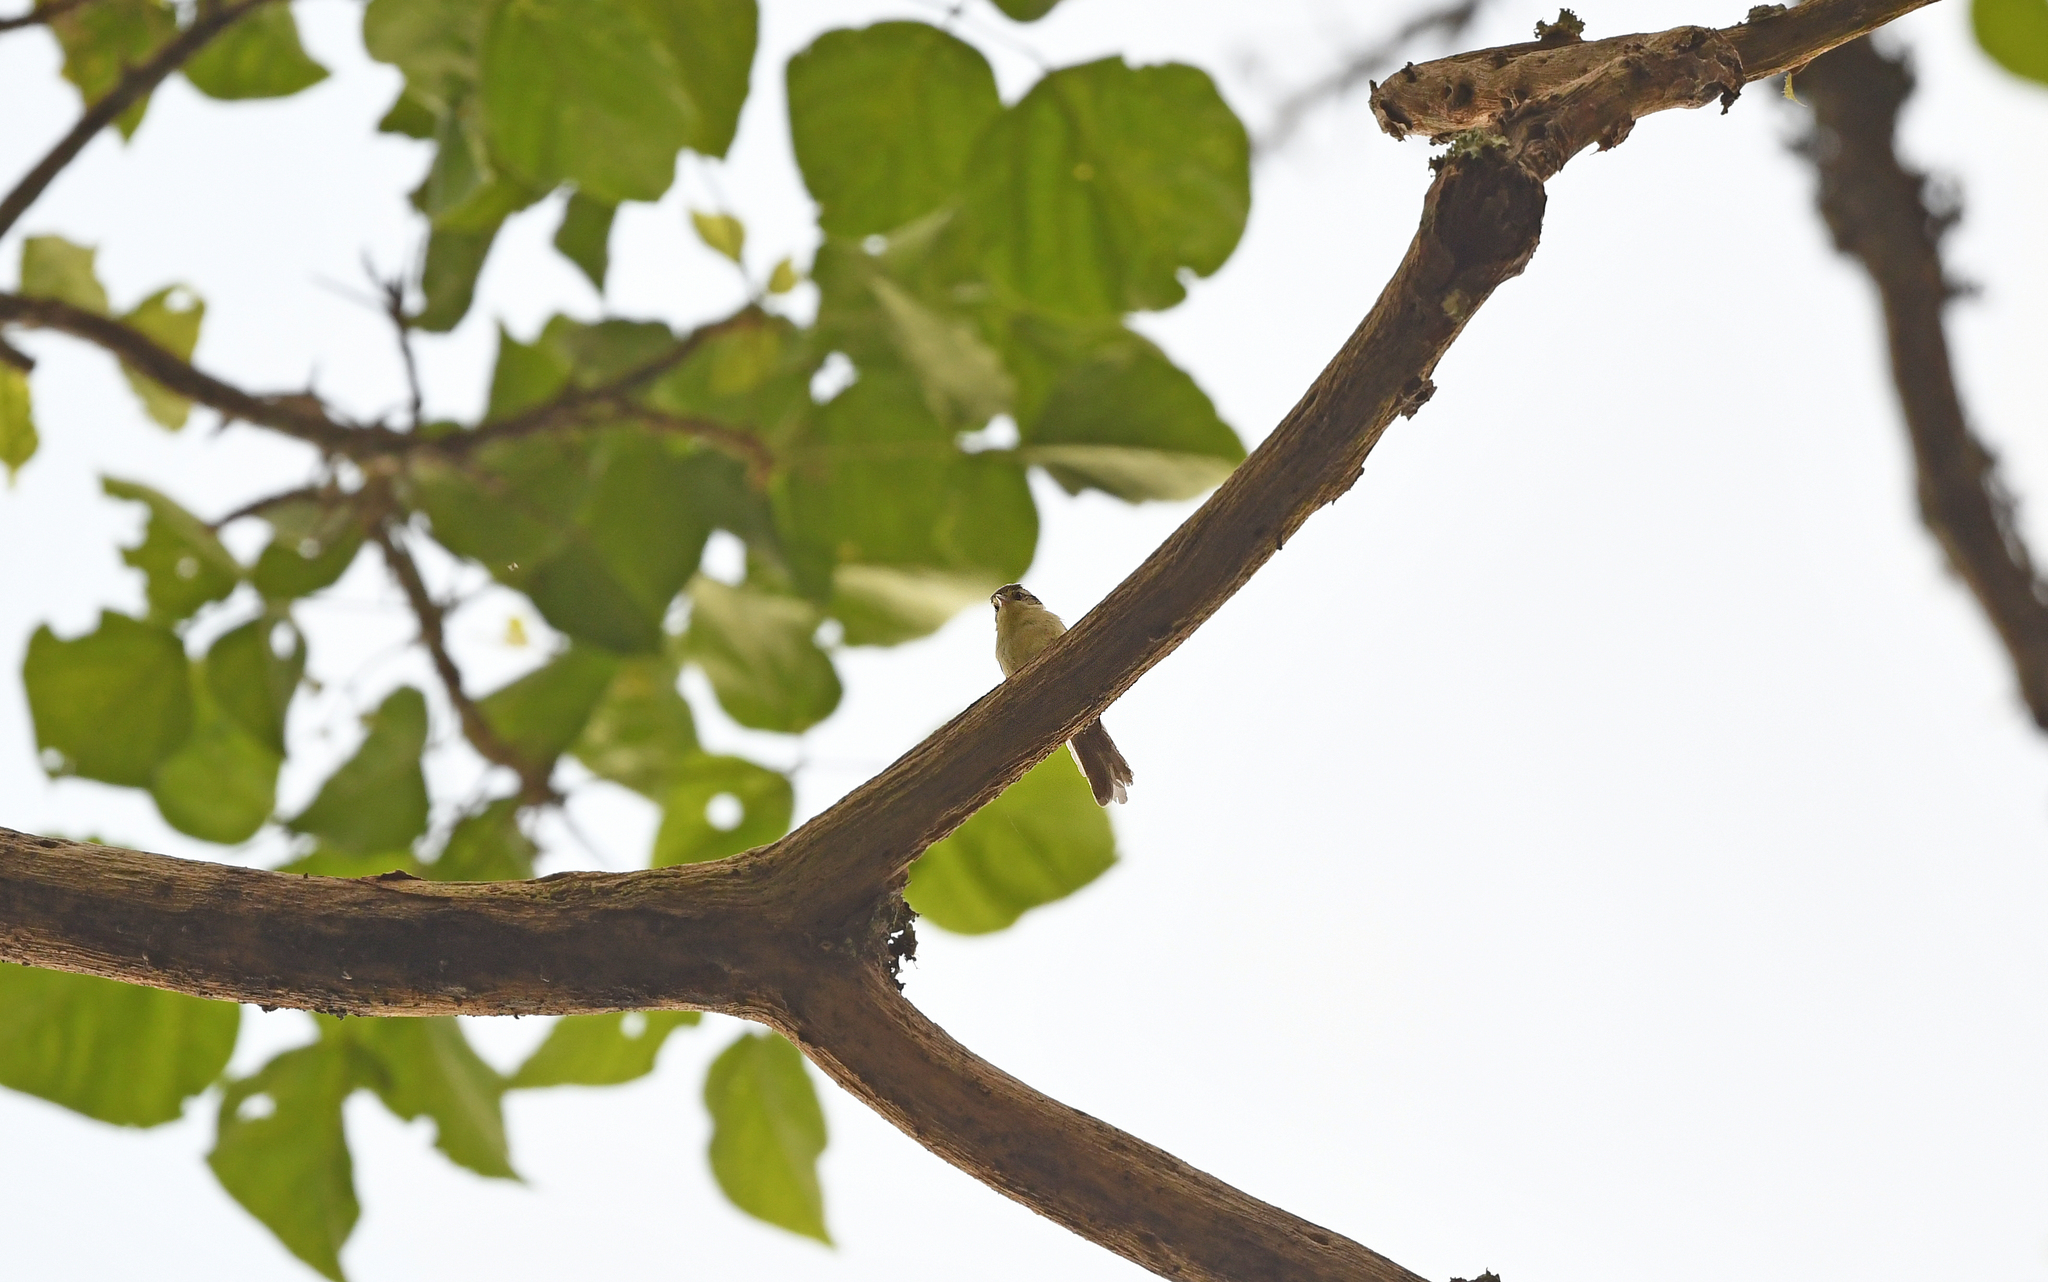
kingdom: Animalia
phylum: Chordata
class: Aves
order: Passeriformes
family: Furnariidae
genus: Xenerpestes
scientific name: Xenerpestes minlosi
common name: Double-banded graytail
